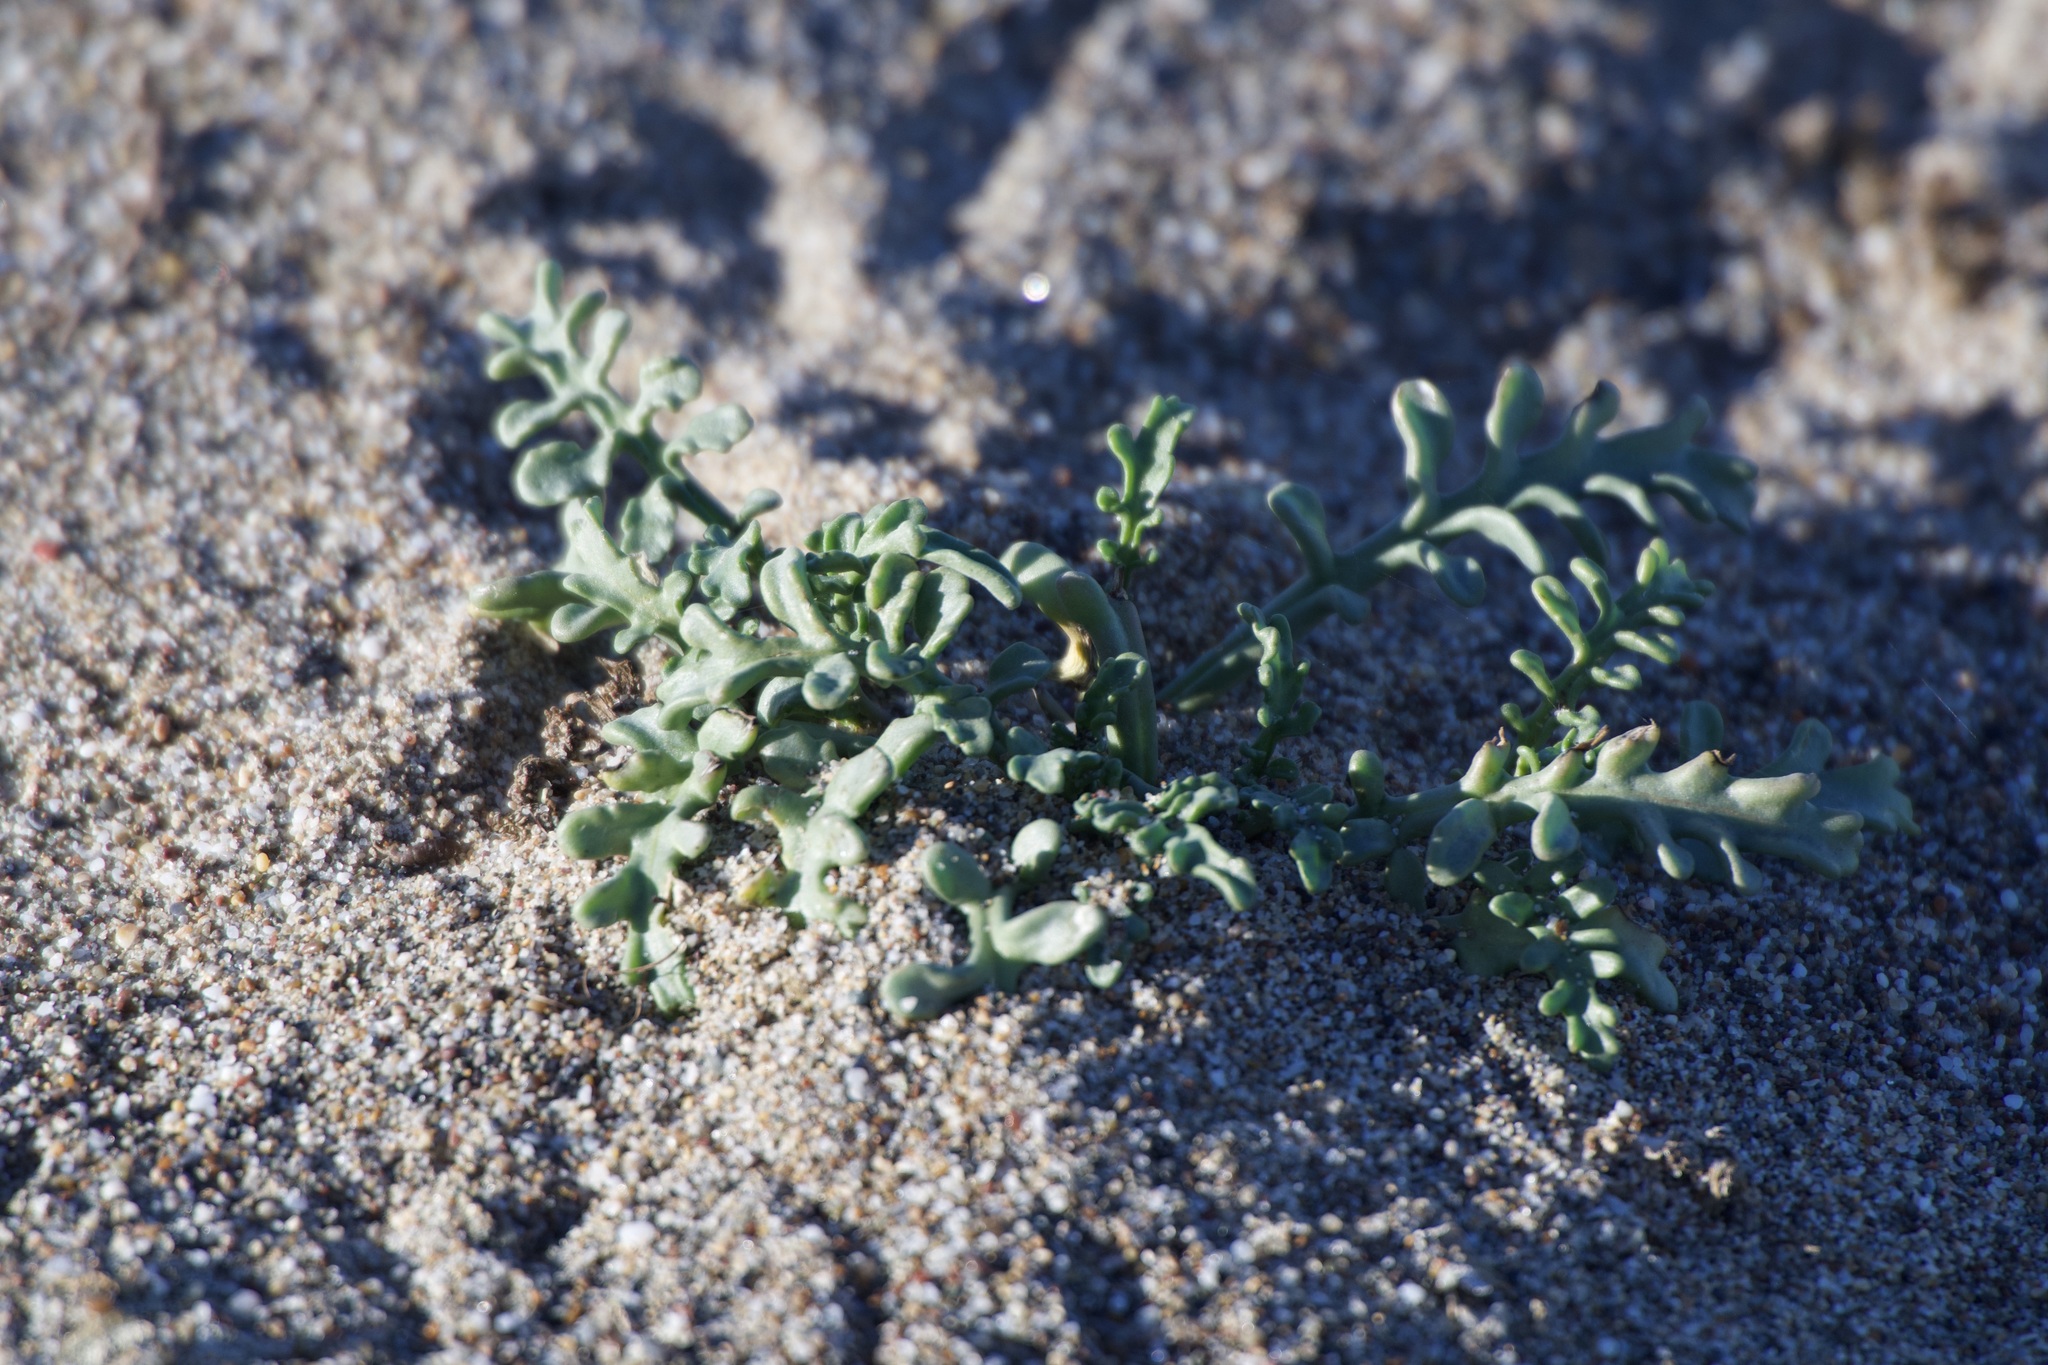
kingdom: Plantae
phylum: Tracheophyta
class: Magnoliopsida
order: Brassicales
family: Brassicaceae
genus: Cakile
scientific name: Cakile maritima
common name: Sea rocket
